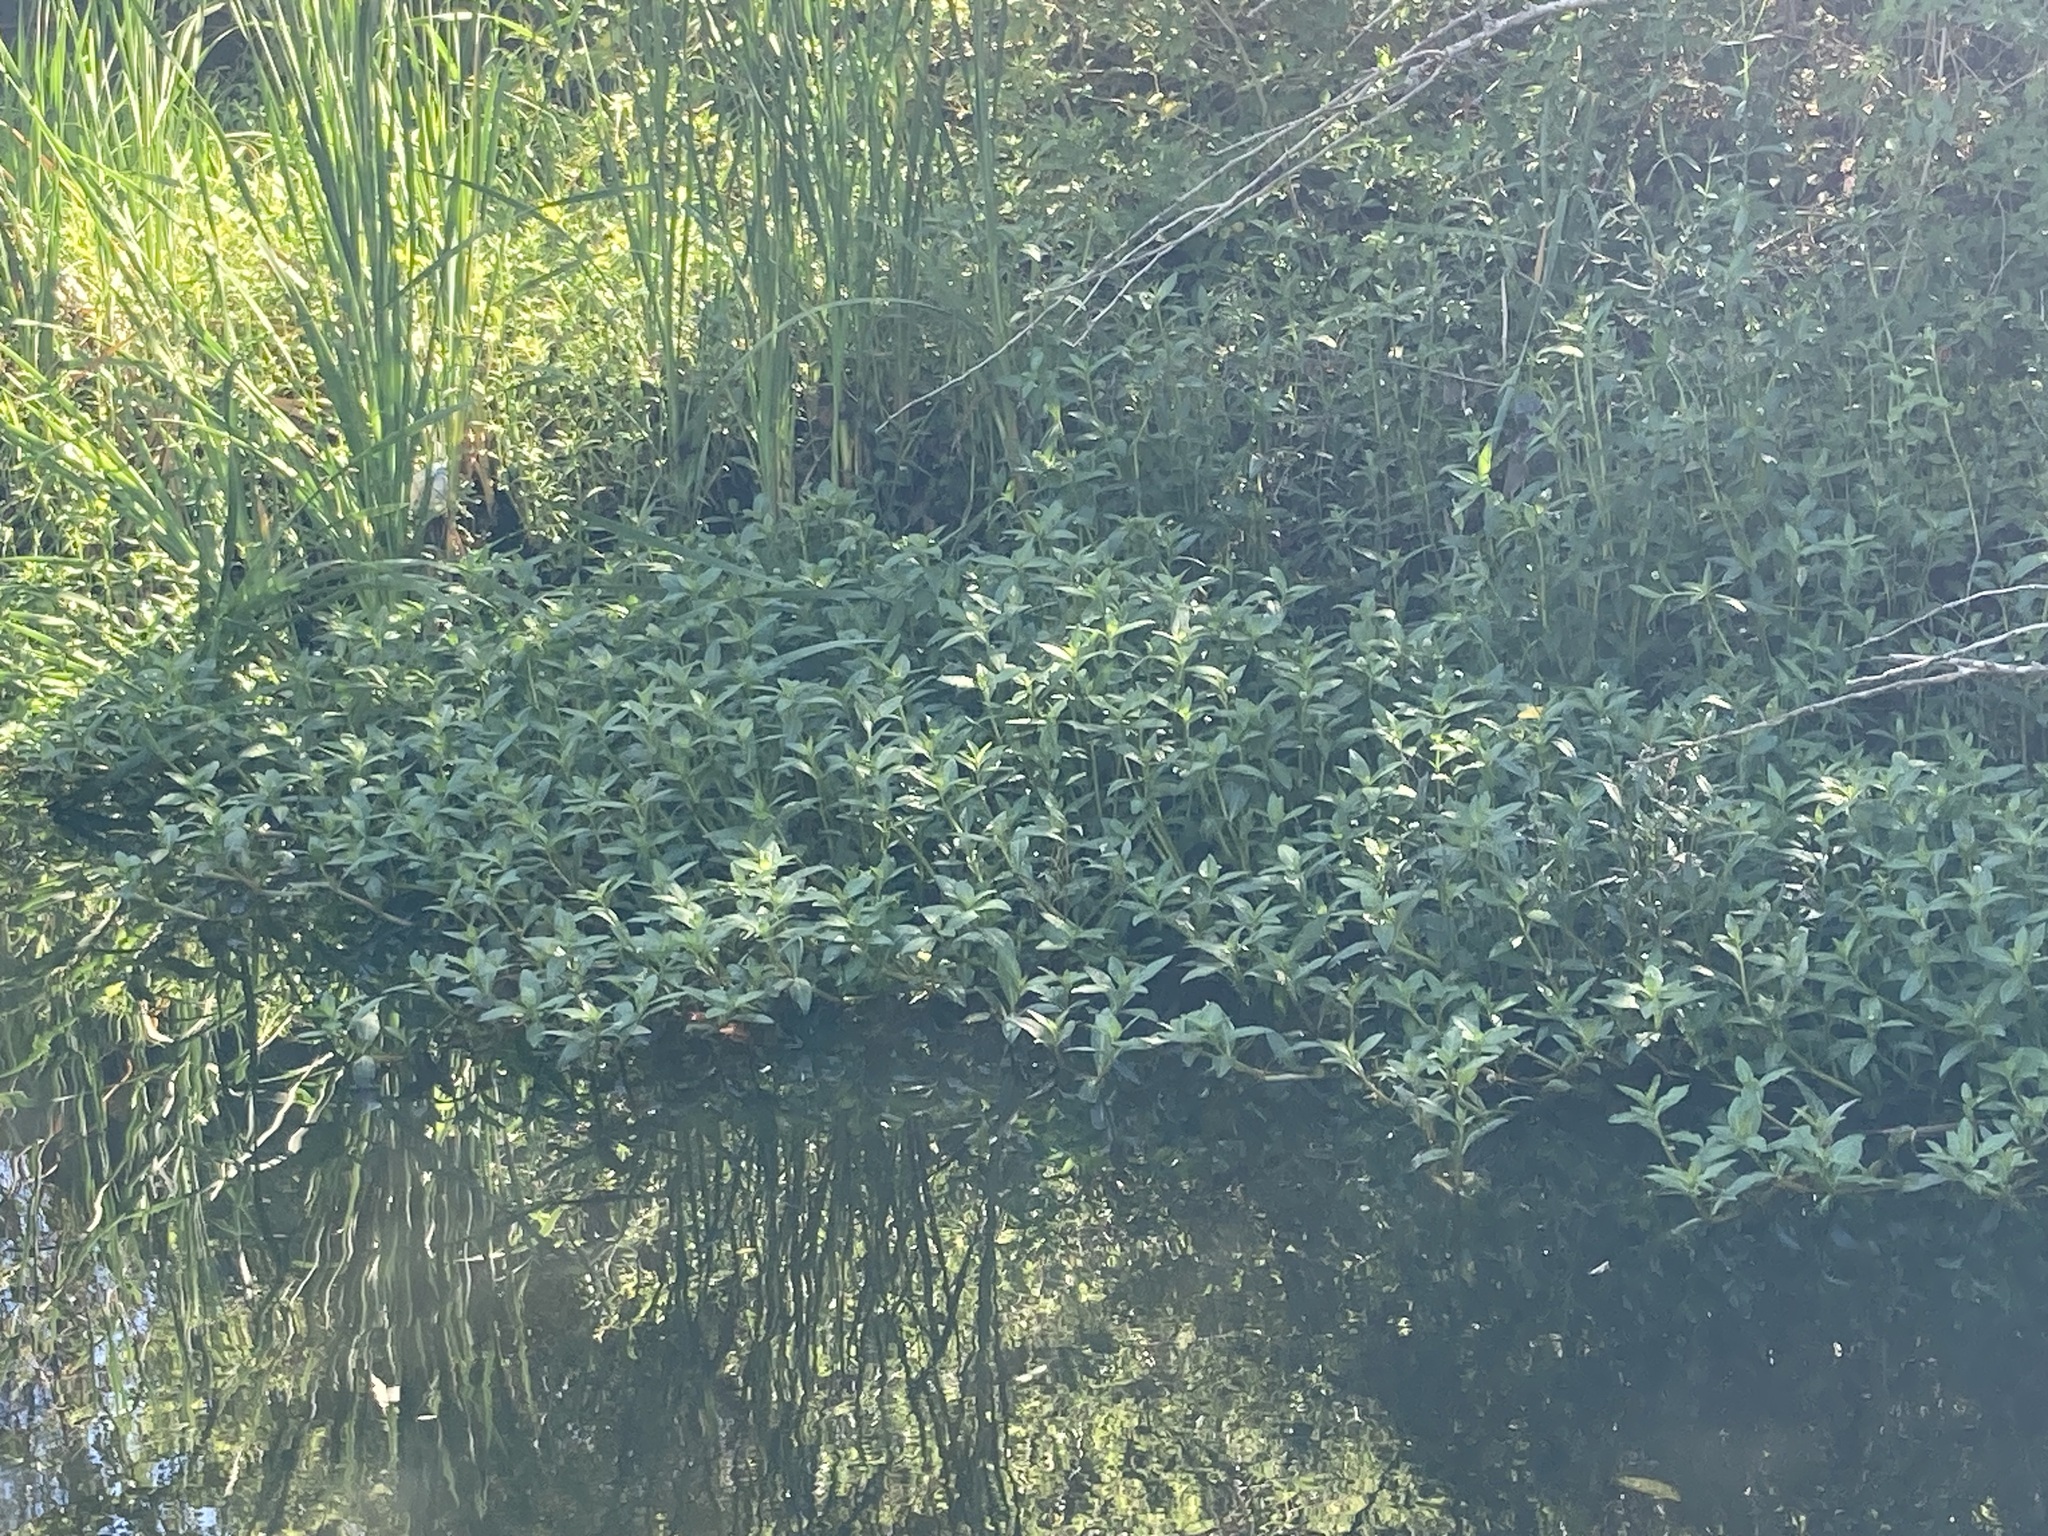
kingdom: Plantae
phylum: Tracheophyta
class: Magnoliopsida
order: Caryophyllales
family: Amaranthaceae
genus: Alternanthera
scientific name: Alternanthera philoxeroides
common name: Alligatorweed
